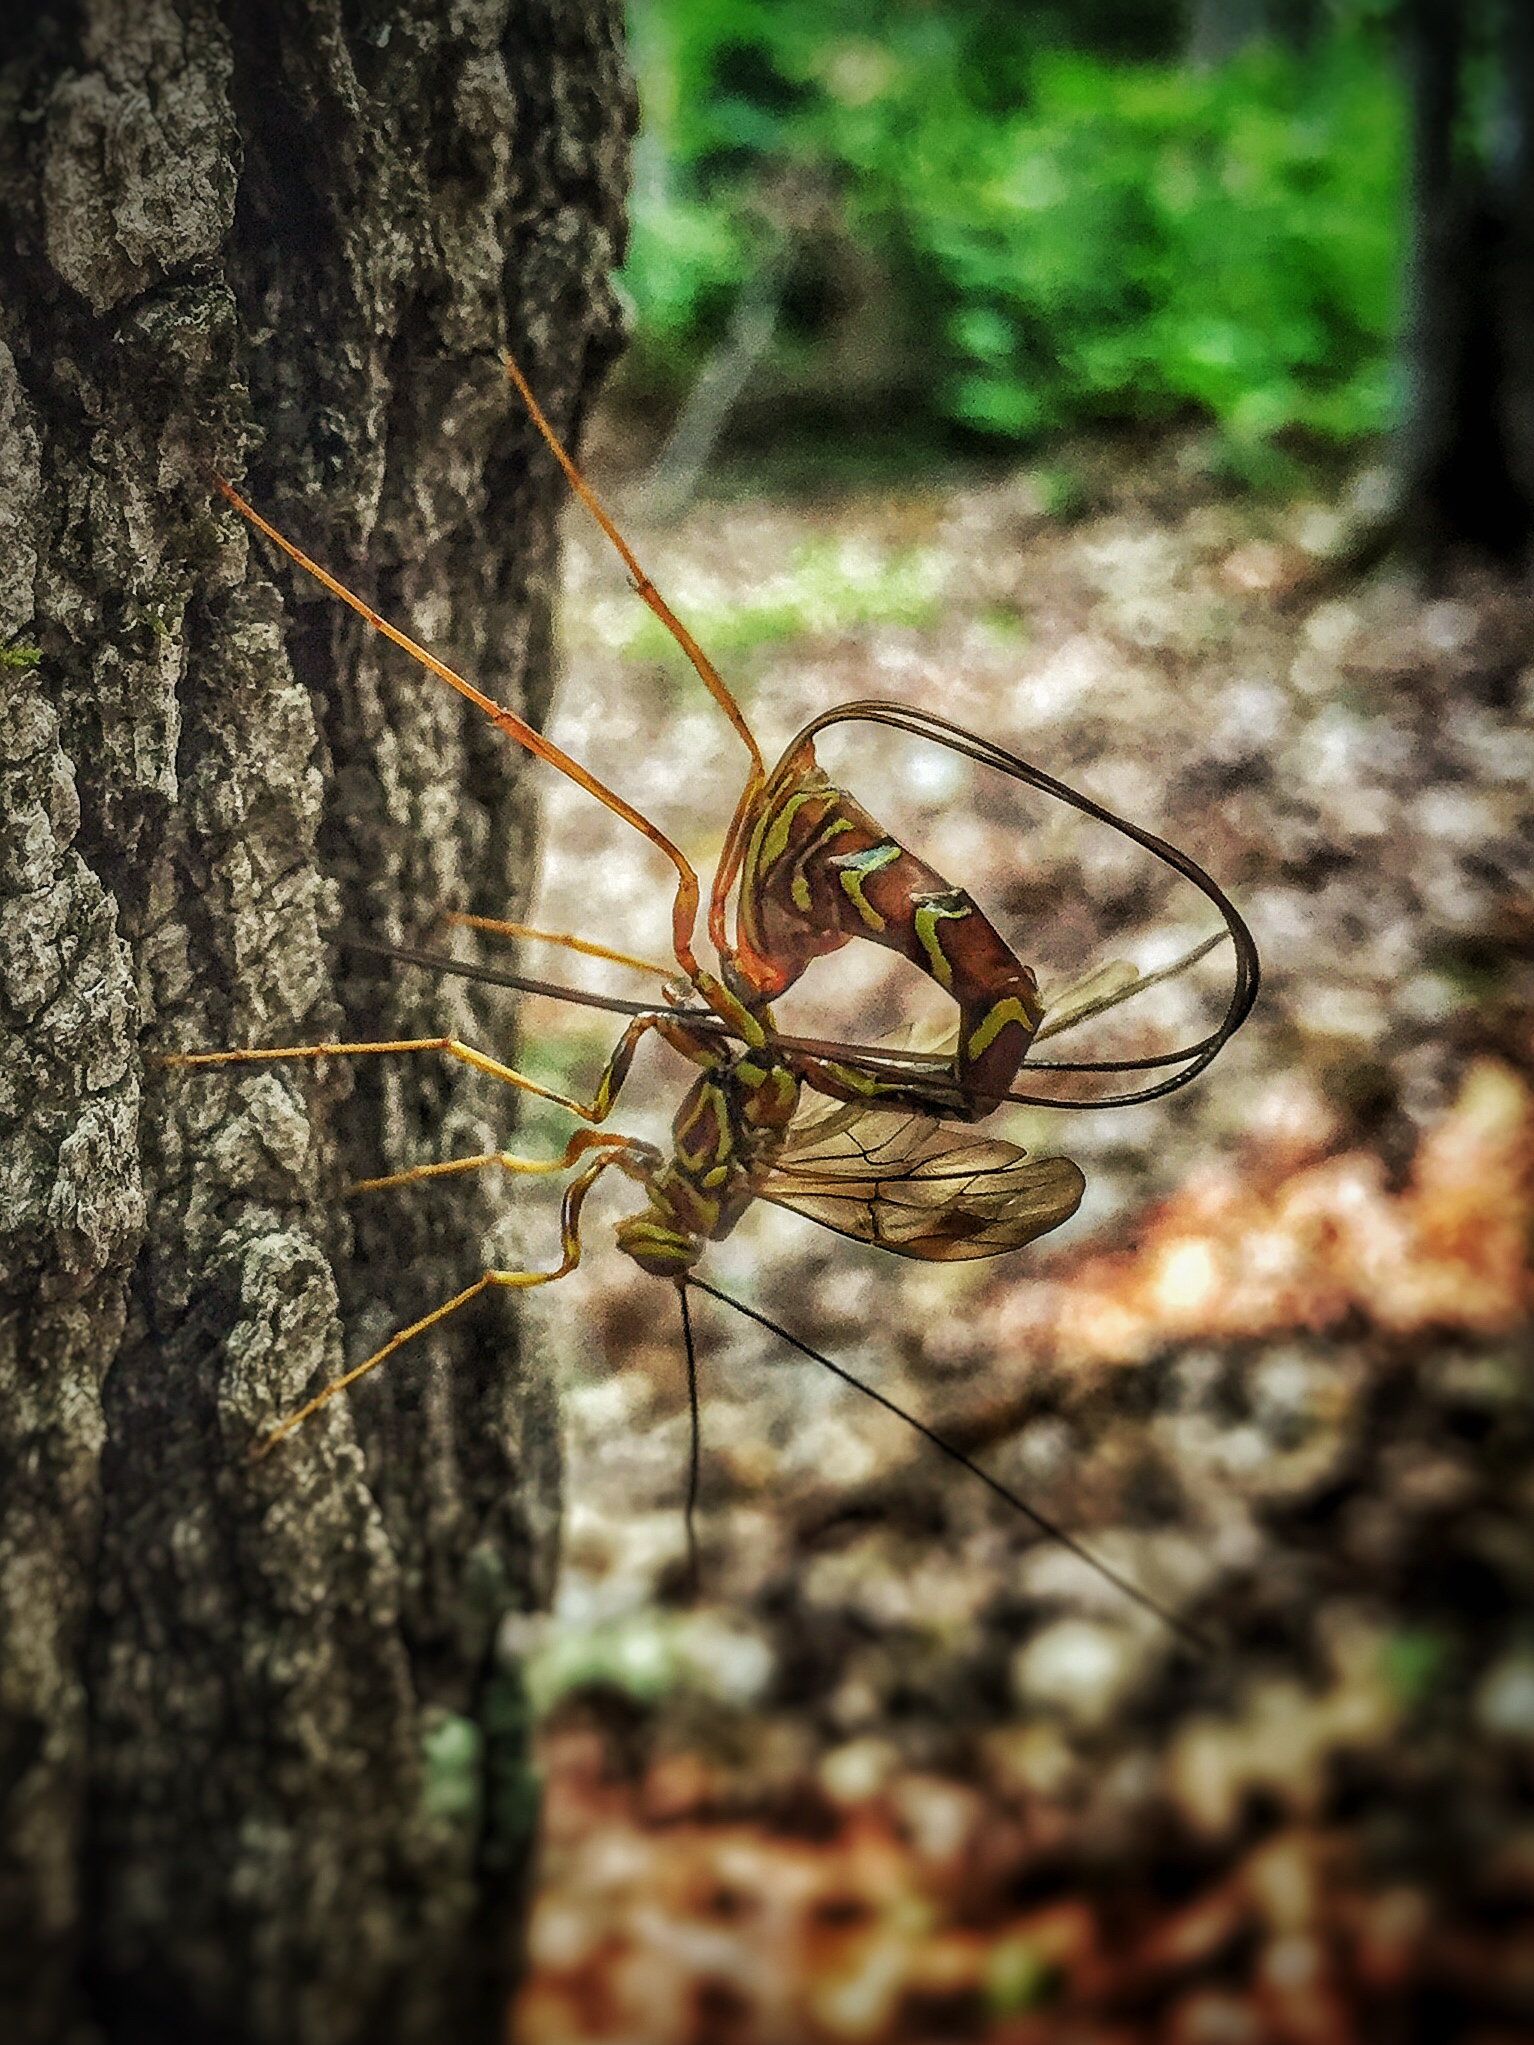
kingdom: Animalia
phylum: Arthropoda
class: Insecta
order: Hymenoptera
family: Ichneumonidae
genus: Megarhyssa
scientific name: Megarhyssa macrura
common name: Long-tailed giant ichneumonid wasp
